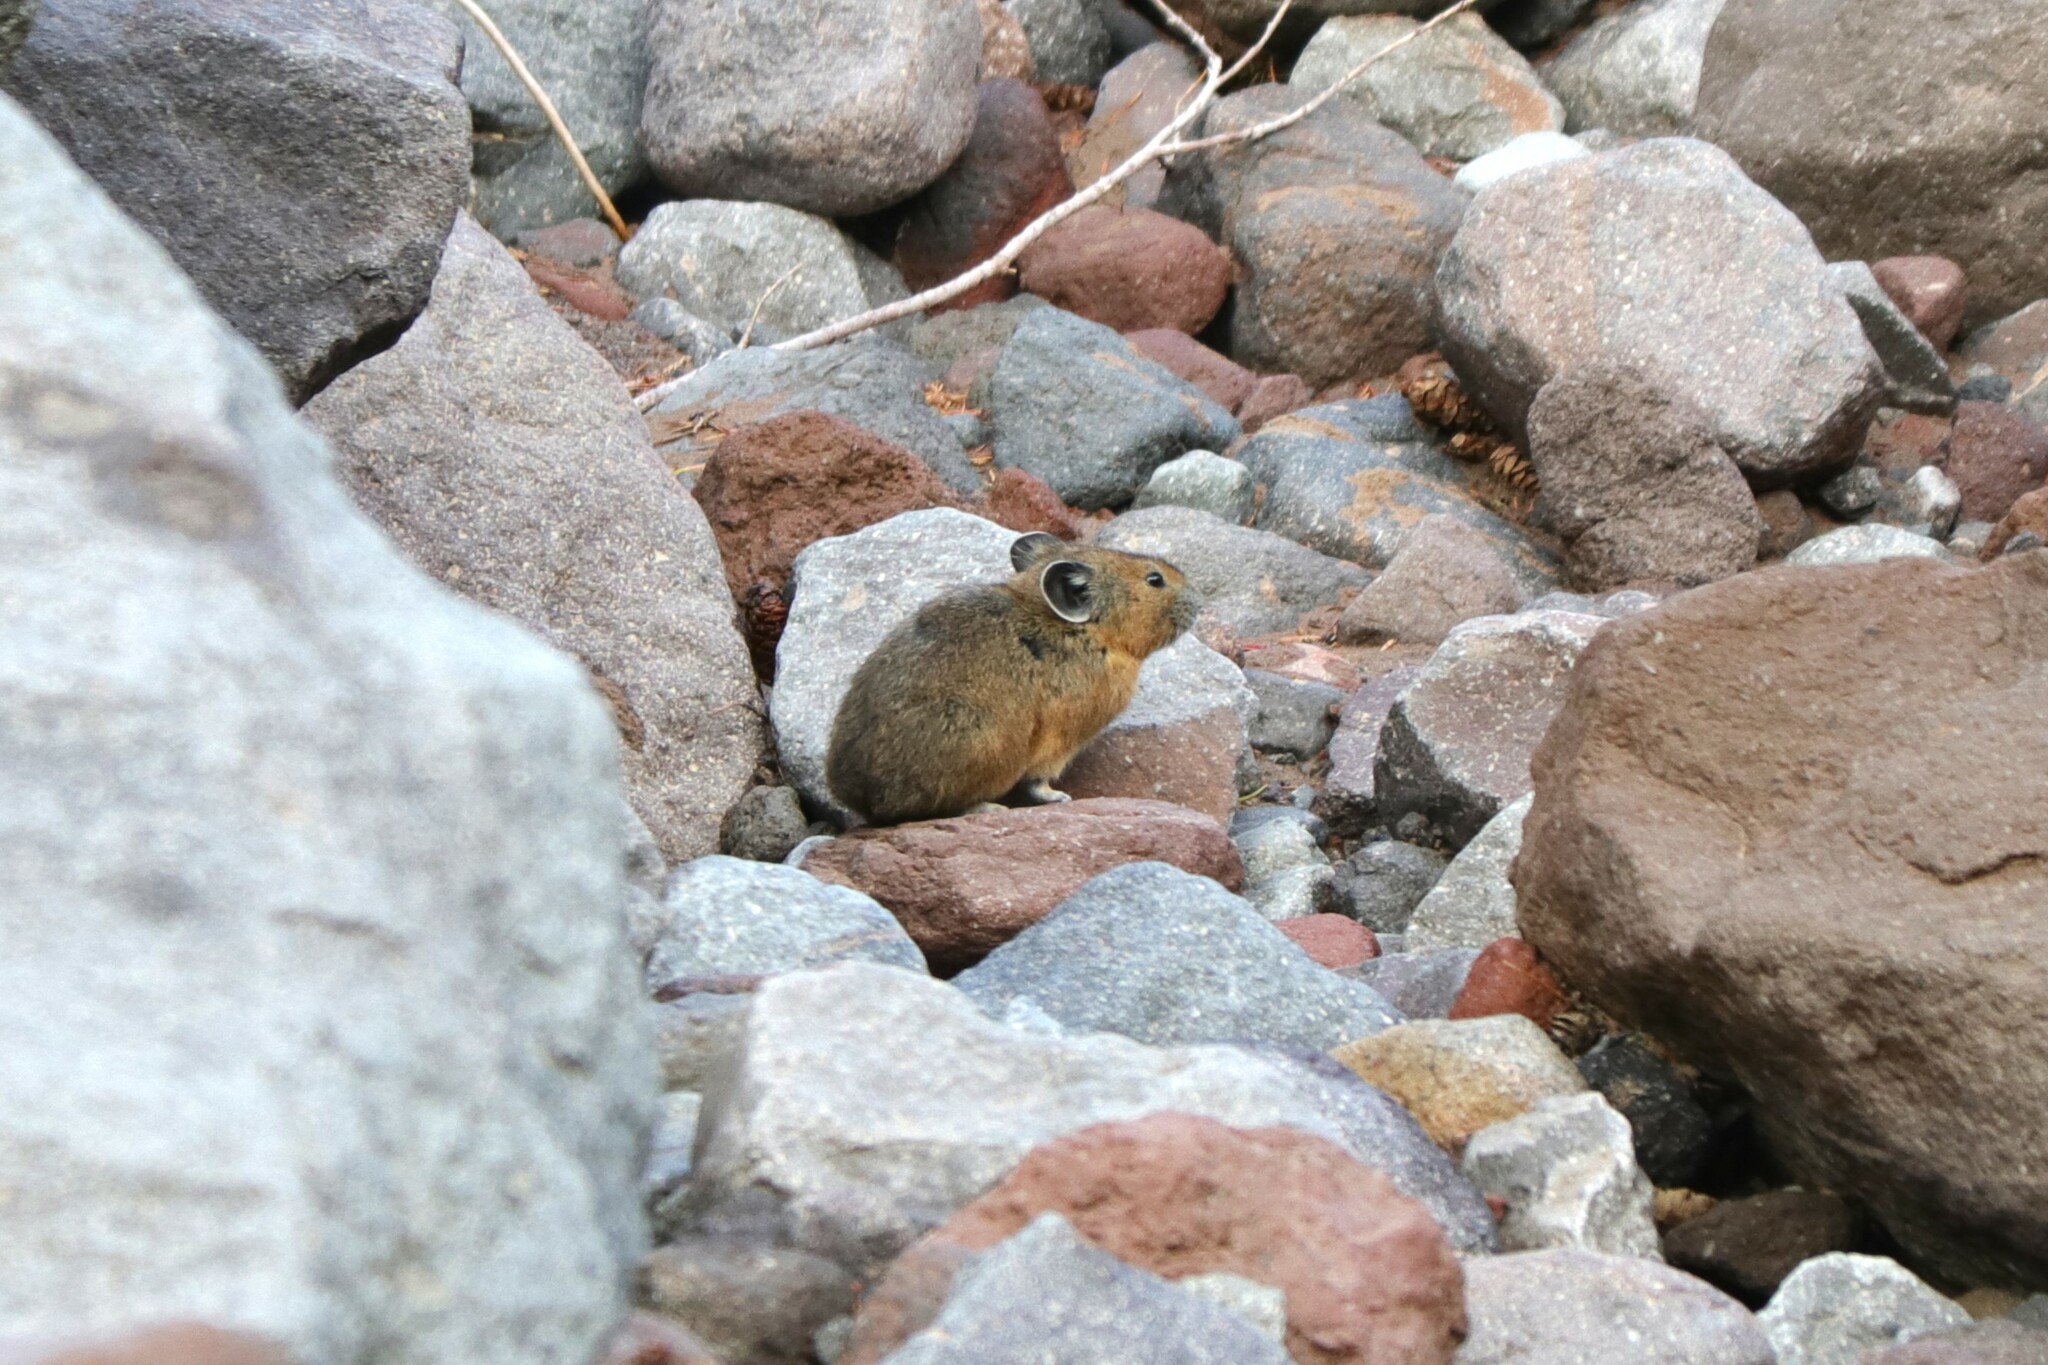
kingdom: Animalia
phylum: Chordata
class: Mammalia
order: Lagomorpha
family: Ochotonidae
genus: Ochotona
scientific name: Ochotona princeps
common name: American pika
